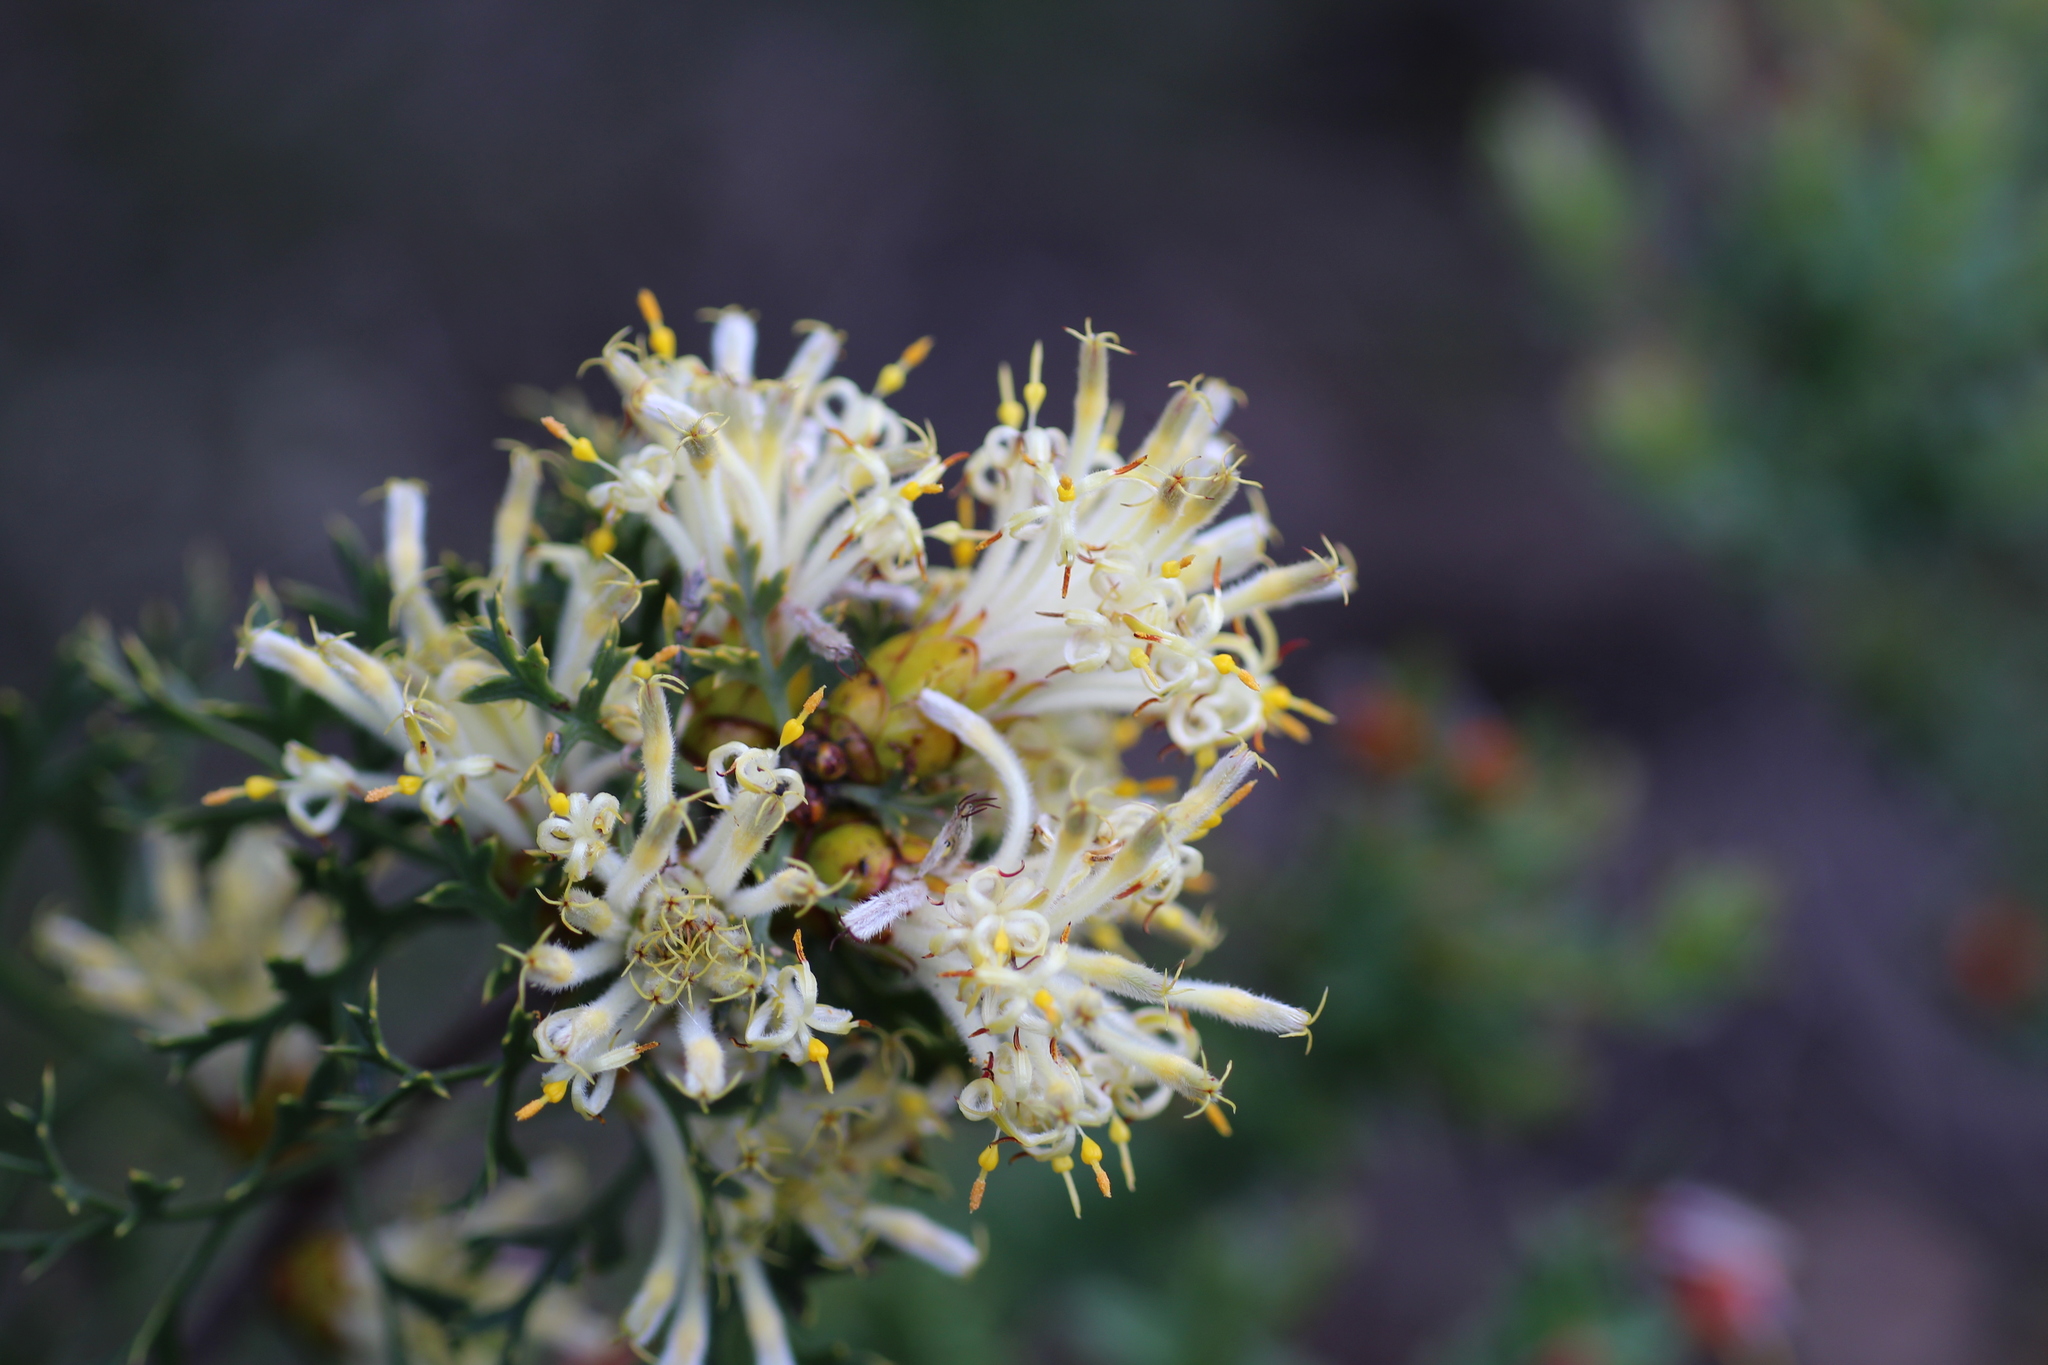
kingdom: Plantae
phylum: Tracheophyta
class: Magnoliopsida
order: Proteales
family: Proteaceae
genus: Petrophile
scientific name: Petrophile striata
